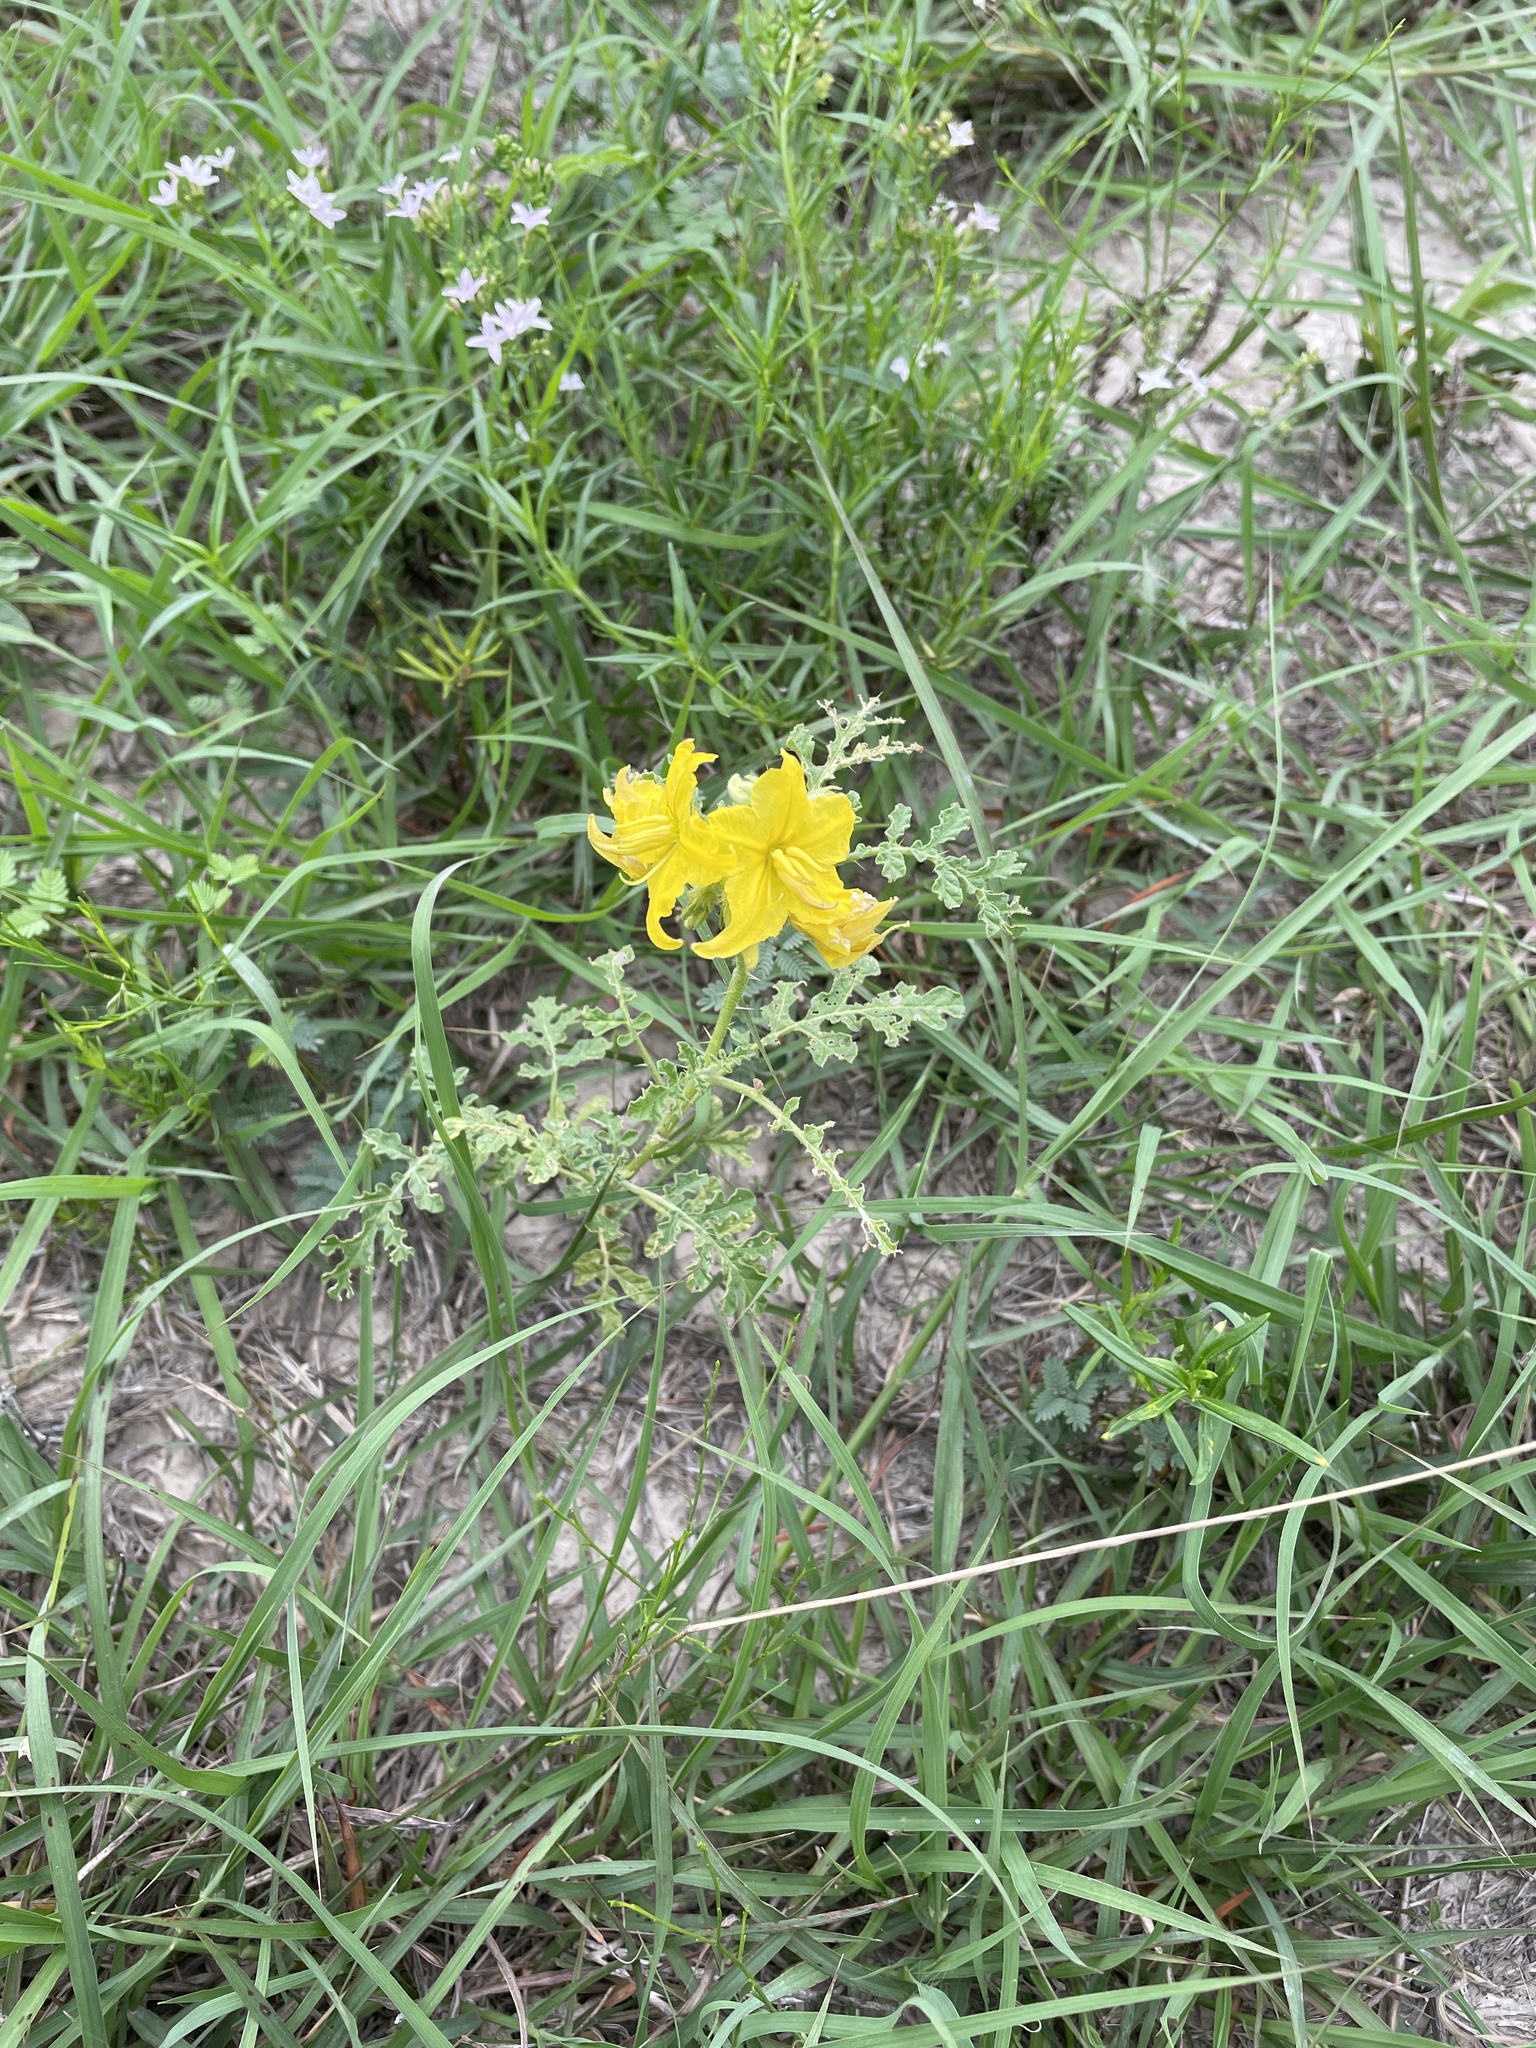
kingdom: Plantae
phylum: Tracheophyta
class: Magnoliopsida
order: Solanales
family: Solanaceae
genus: Solanum
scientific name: Solanum angustifolium
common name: Buffalobur nightshade
